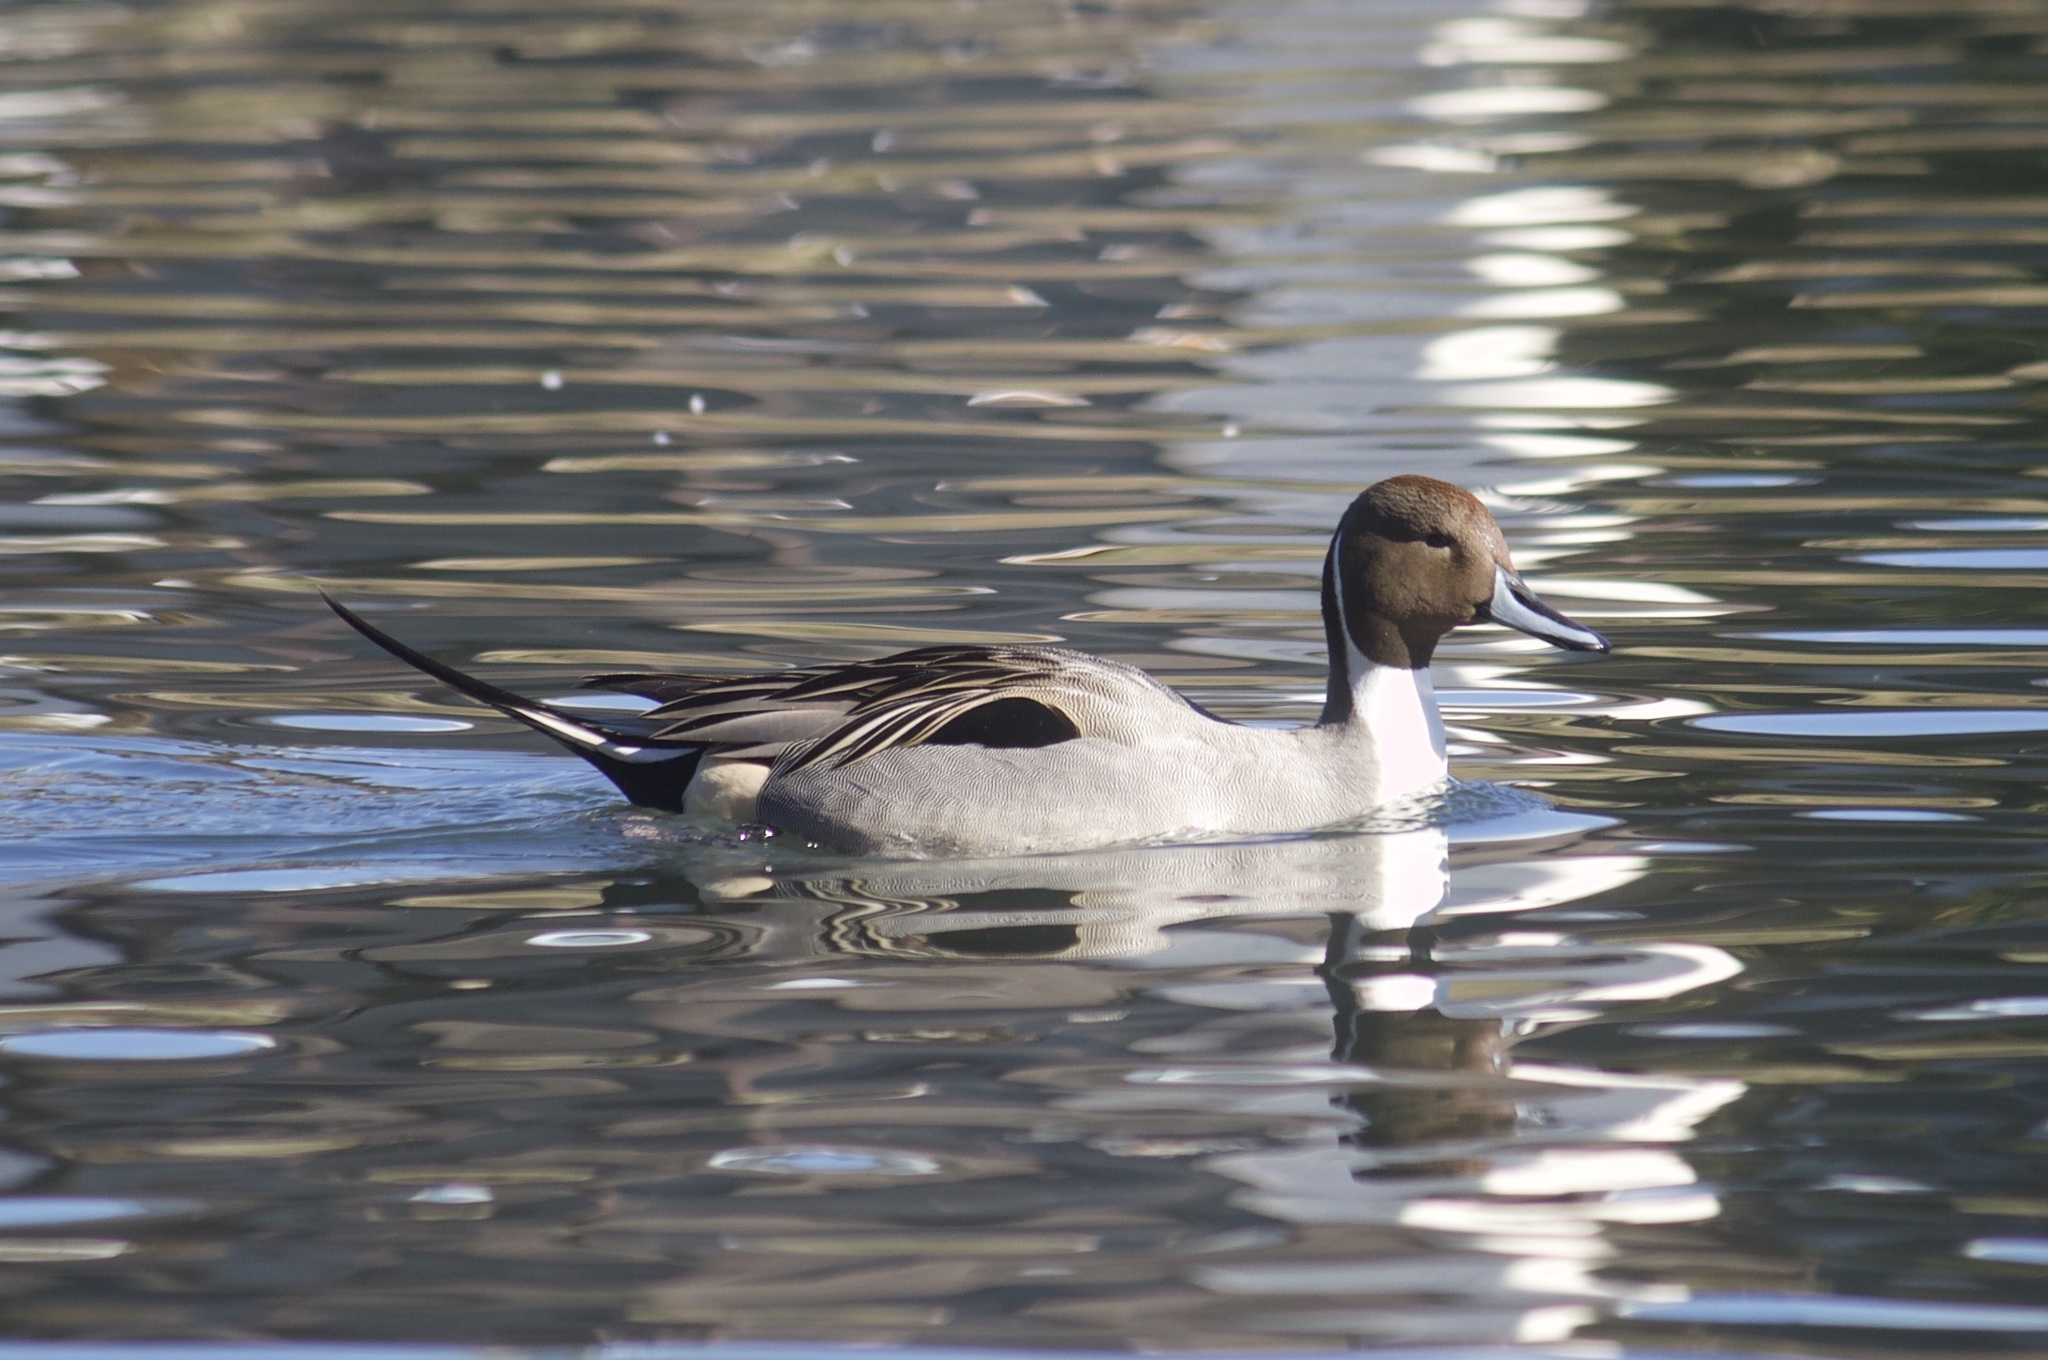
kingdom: Animalia
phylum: Chordata
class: Aves
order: Anseriformes
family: Anatidae
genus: Anas
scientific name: Anas acuta
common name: Northern pintail
